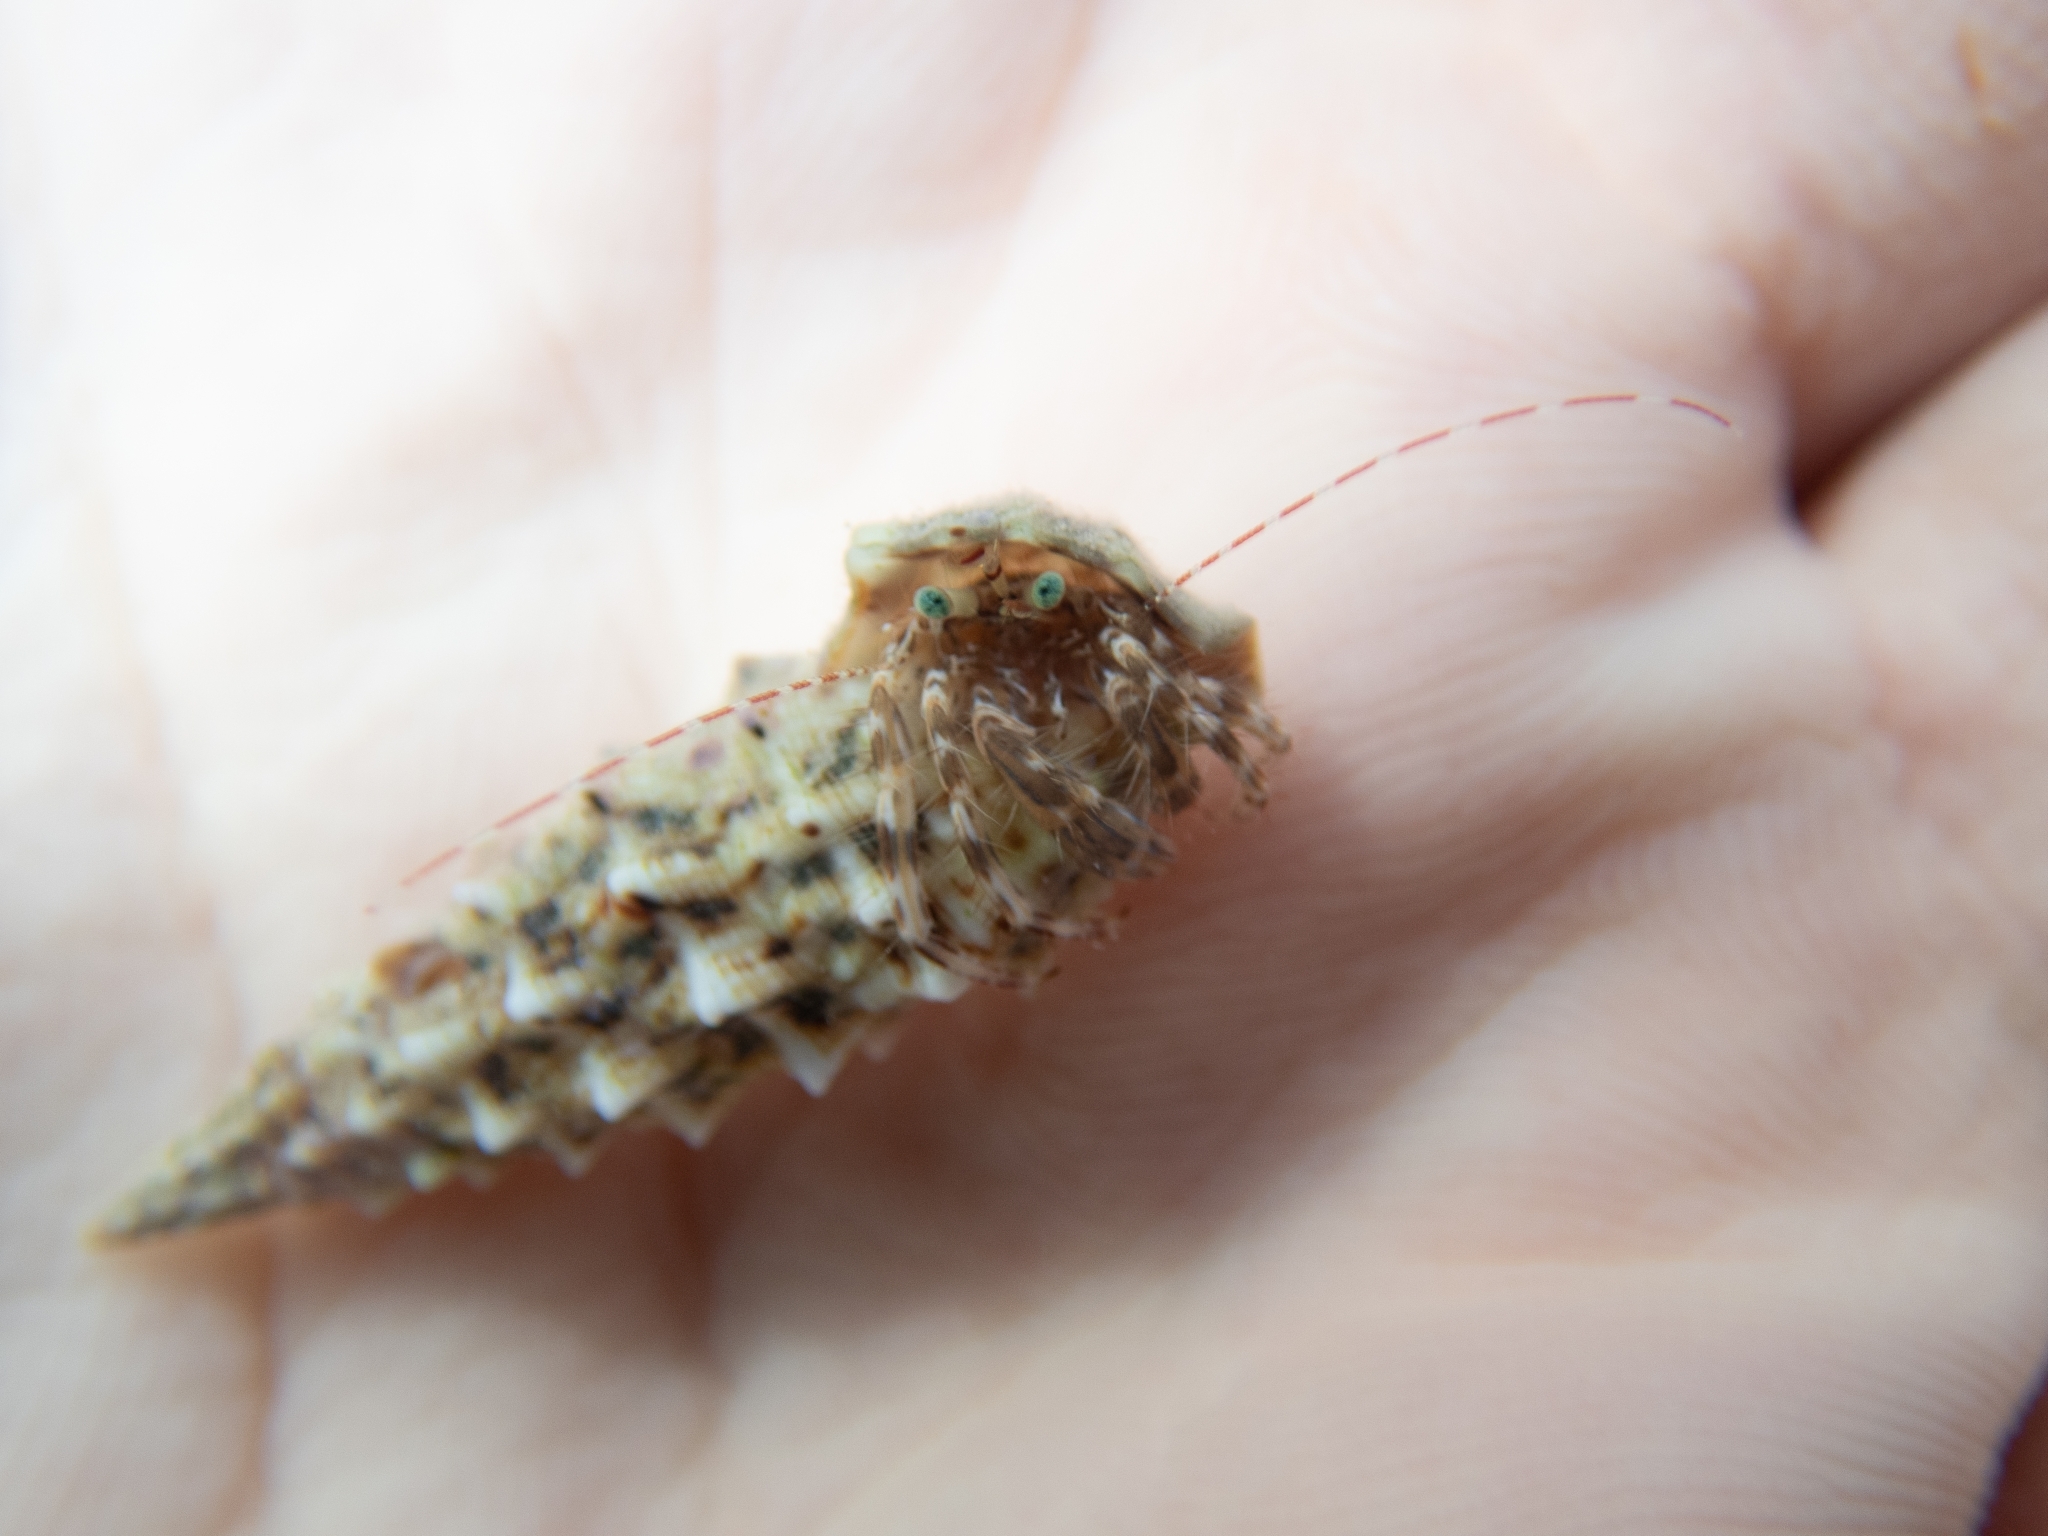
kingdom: Animalia
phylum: Arthropoda
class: Malacostraca
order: Decapoda
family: Paguridae
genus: Pagurus
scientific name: Pagurus anachoretus
